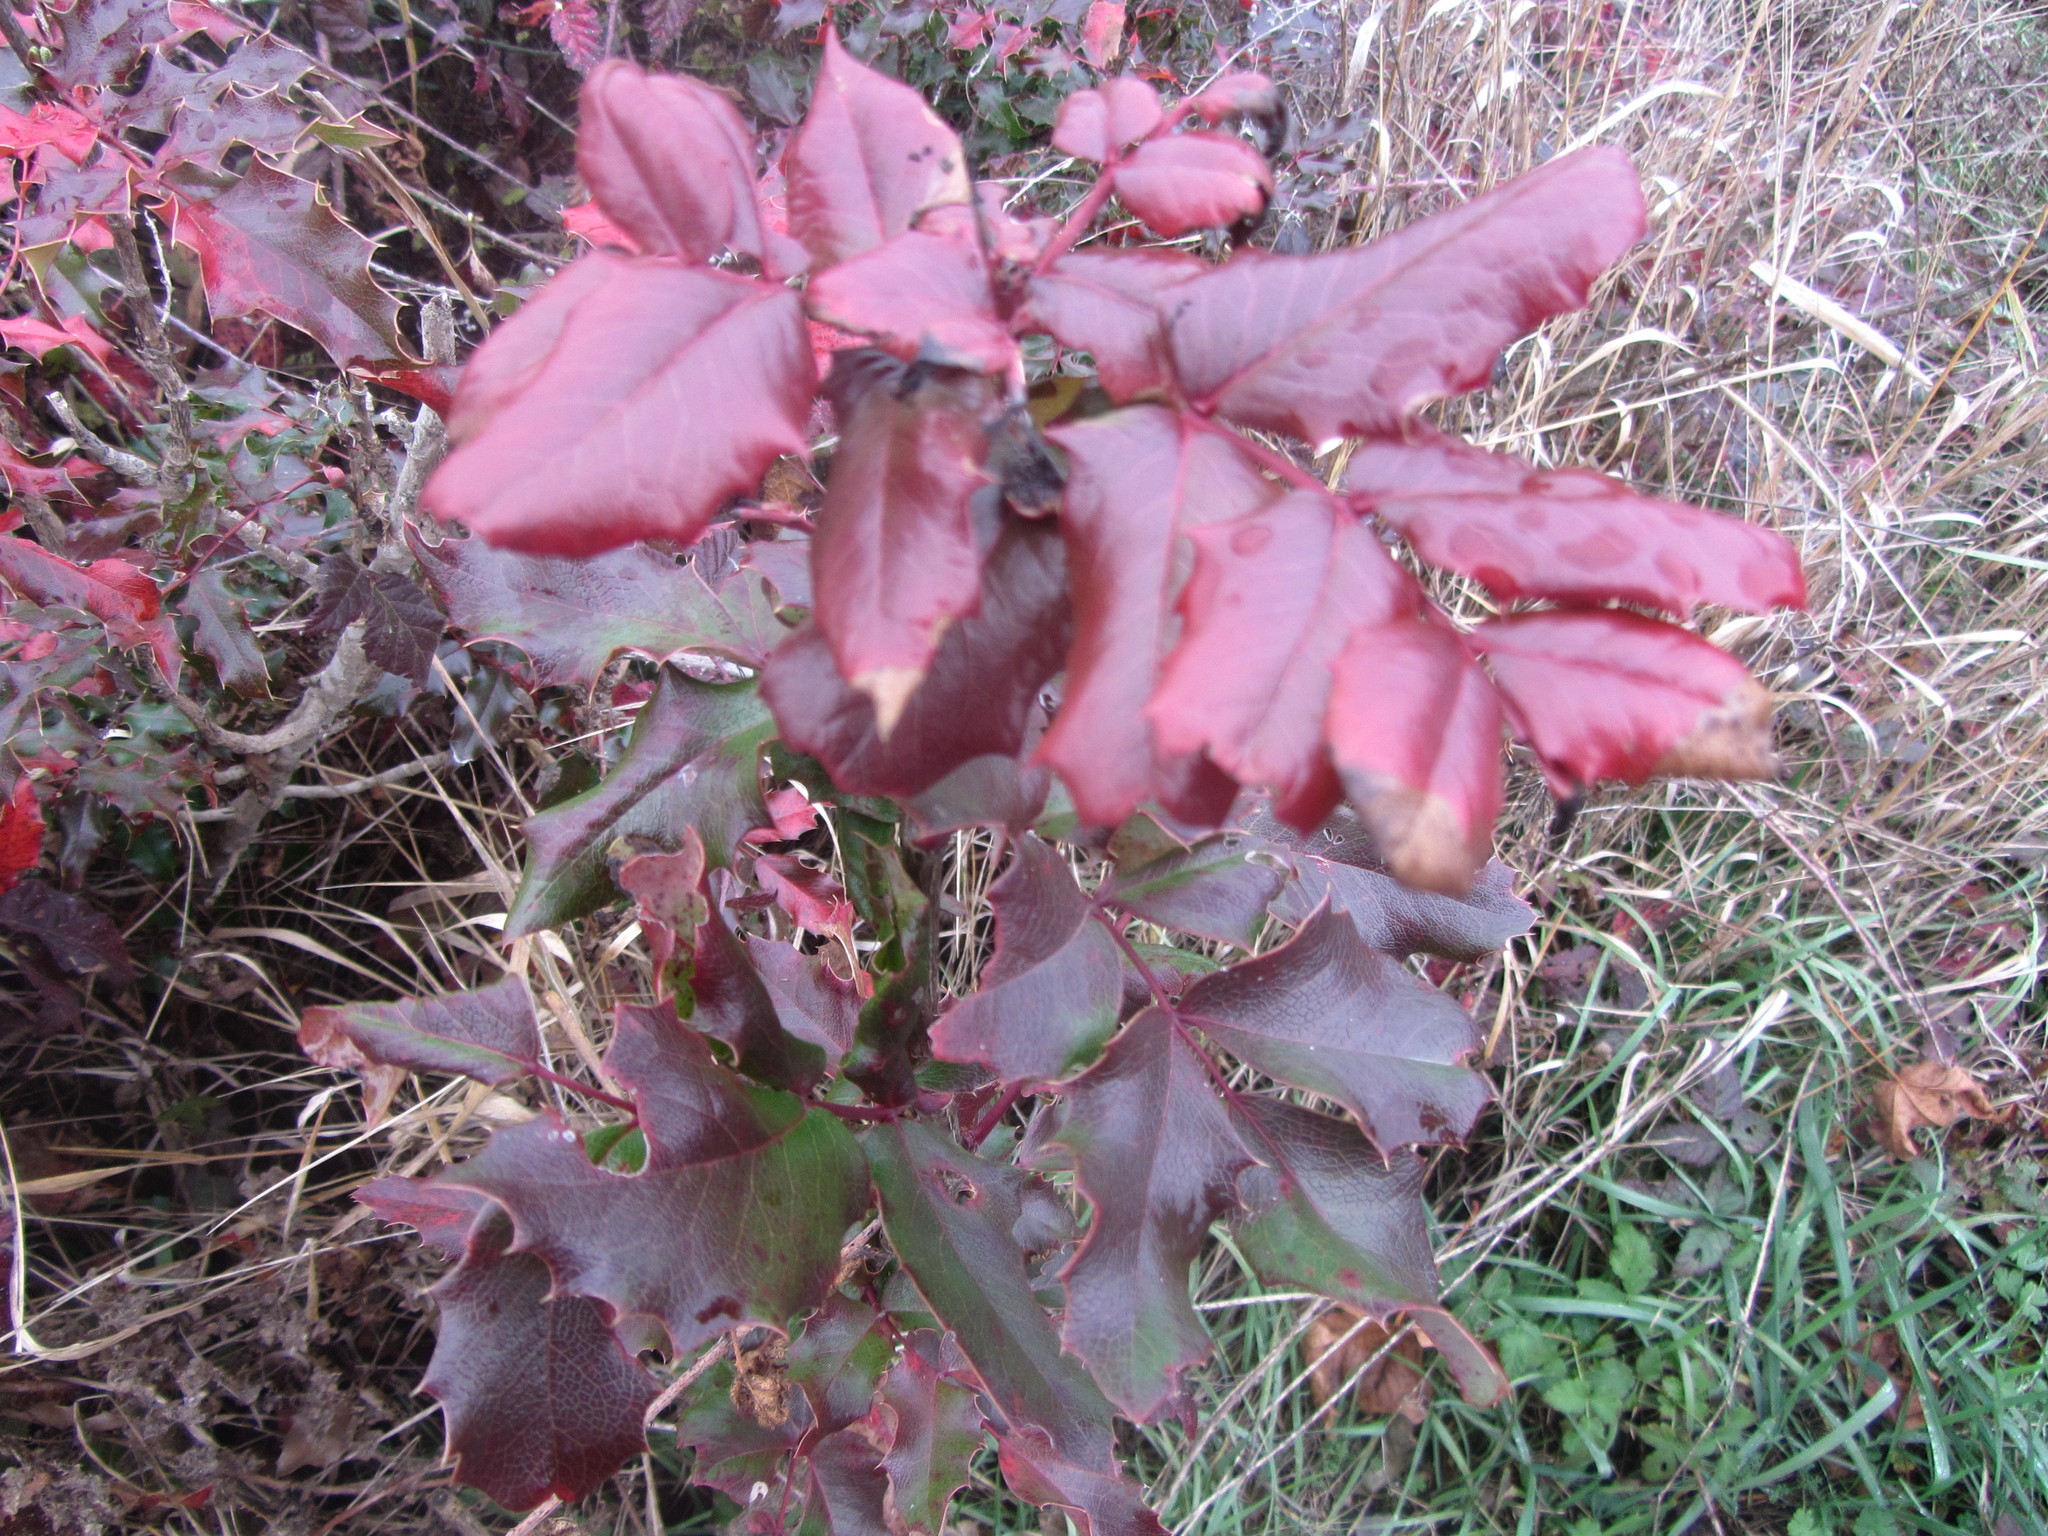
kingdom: Plantae
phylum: Tracheophyta
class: Magnoliopsida
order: Ranunculales
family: Berberidaceae
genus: Mahonia
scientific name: Mahonia aquifolium
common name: Oregon-grape
